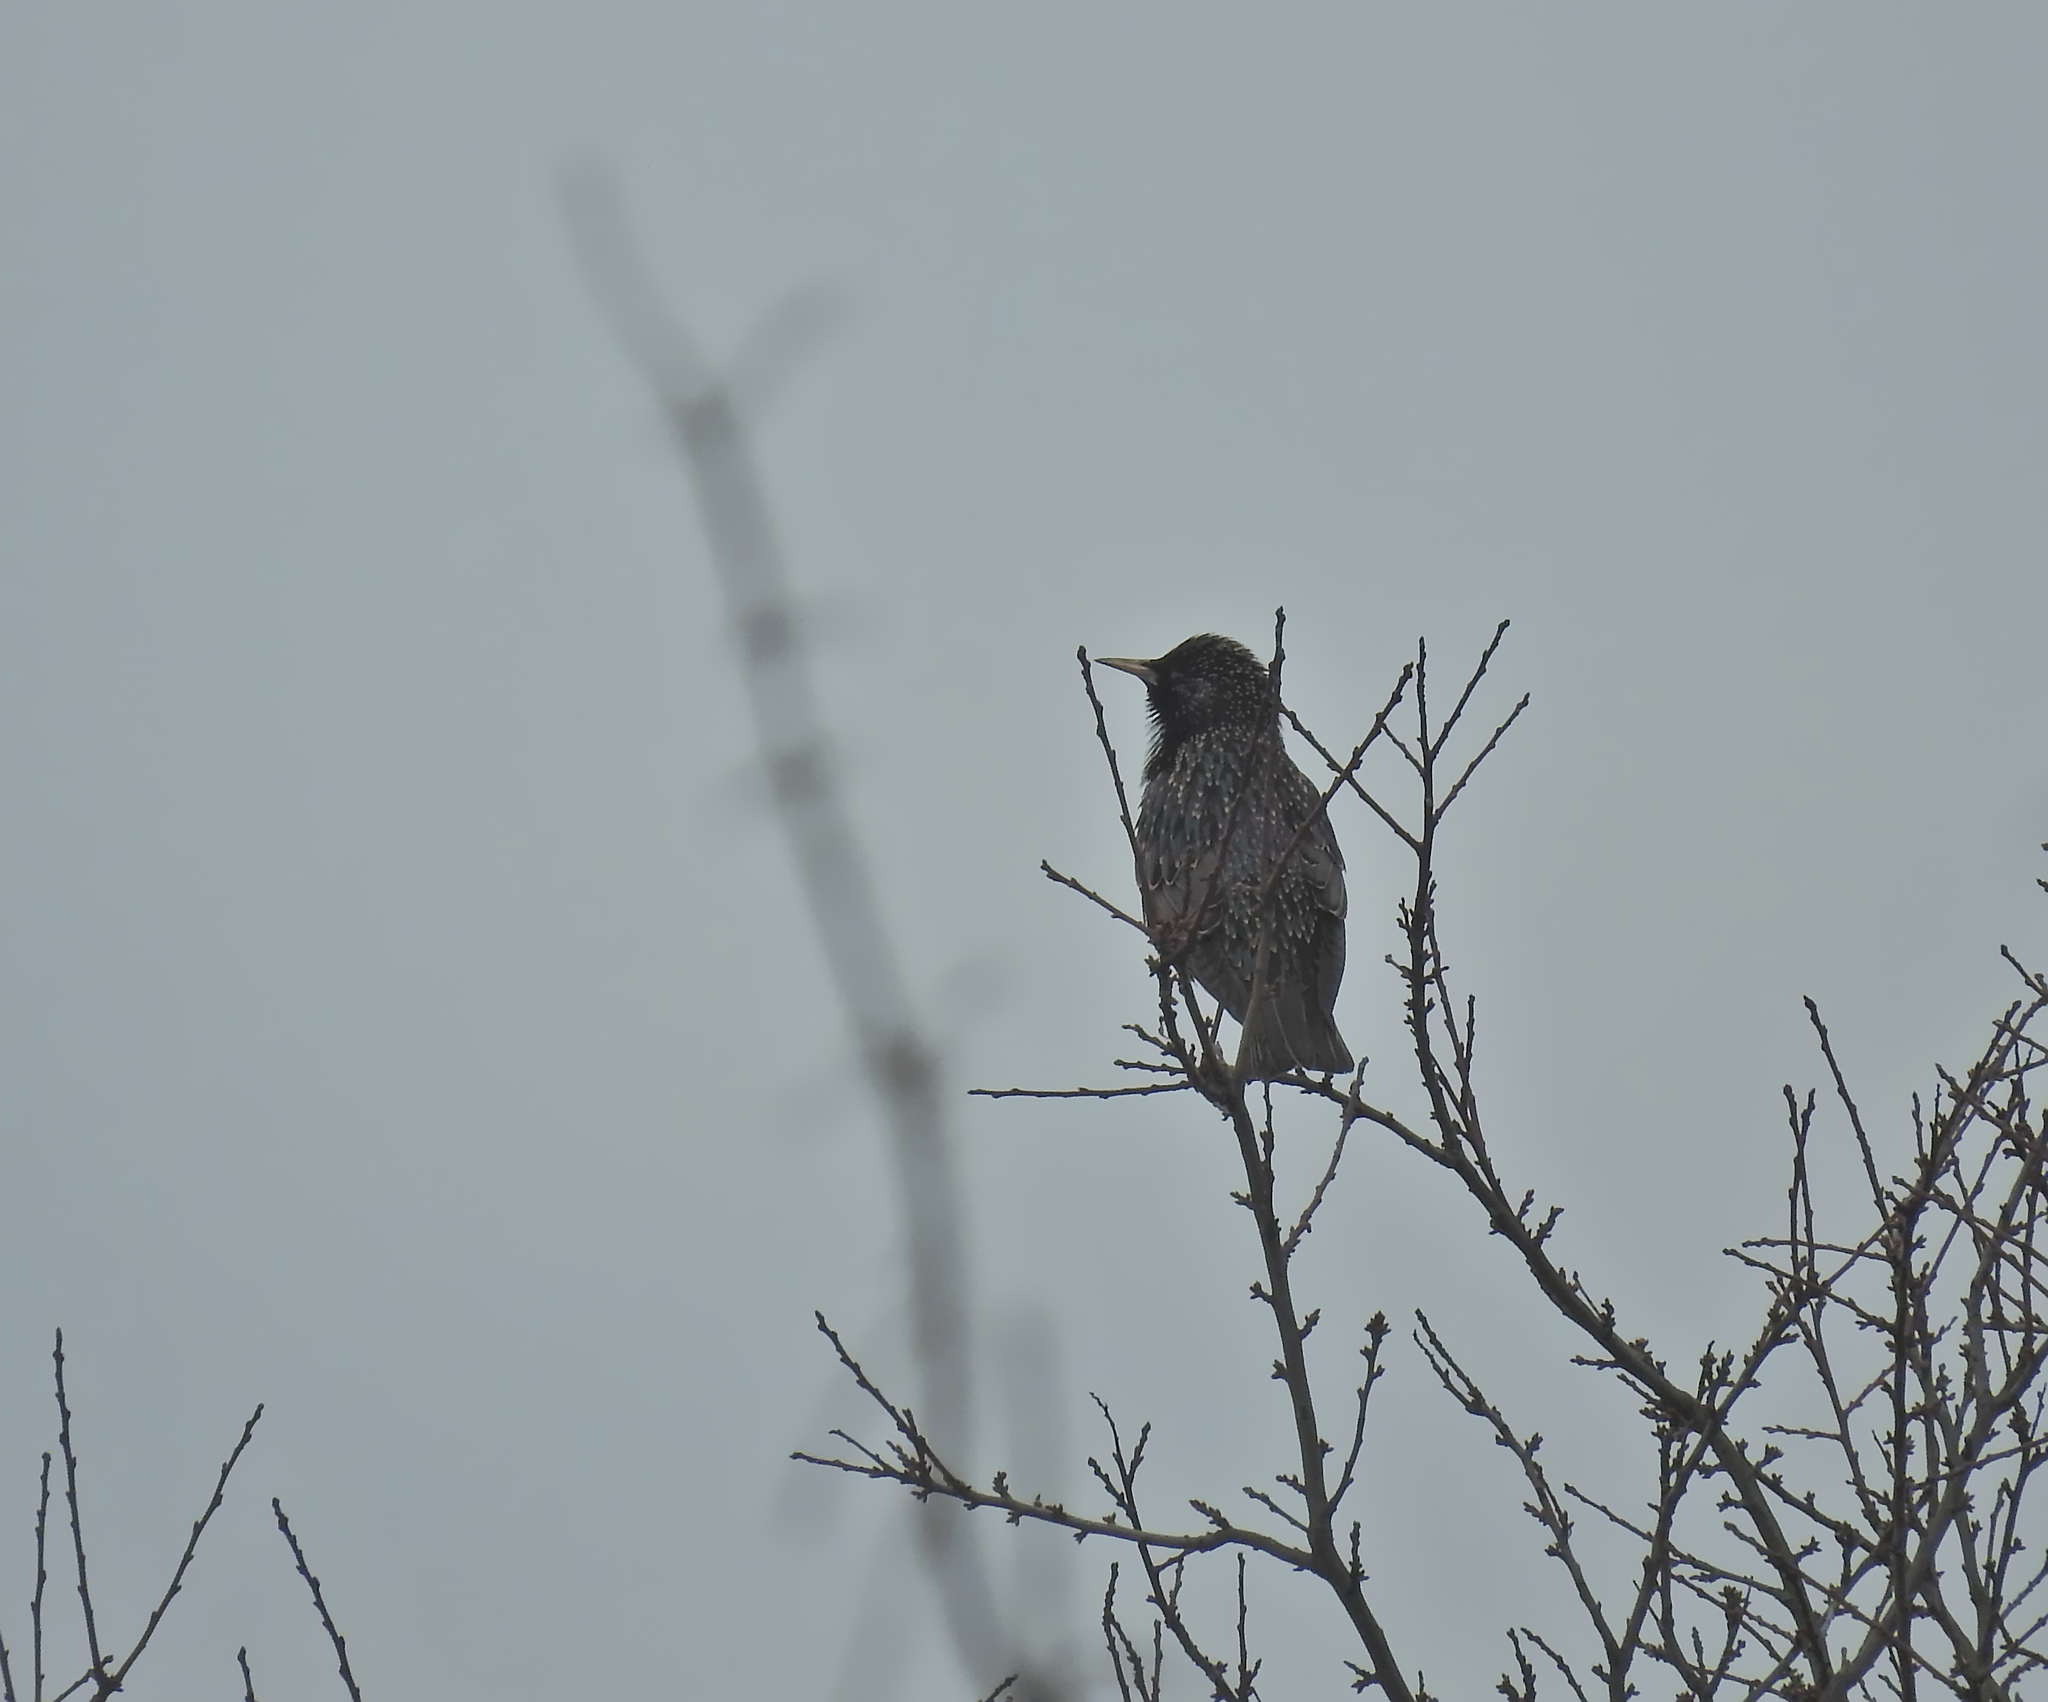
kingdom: Animalia
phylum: Chordata
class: Aves
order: Passeriformes
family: Sturnidae
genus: Sturnus
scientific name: Sturnus vulgaris
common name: Common starling
